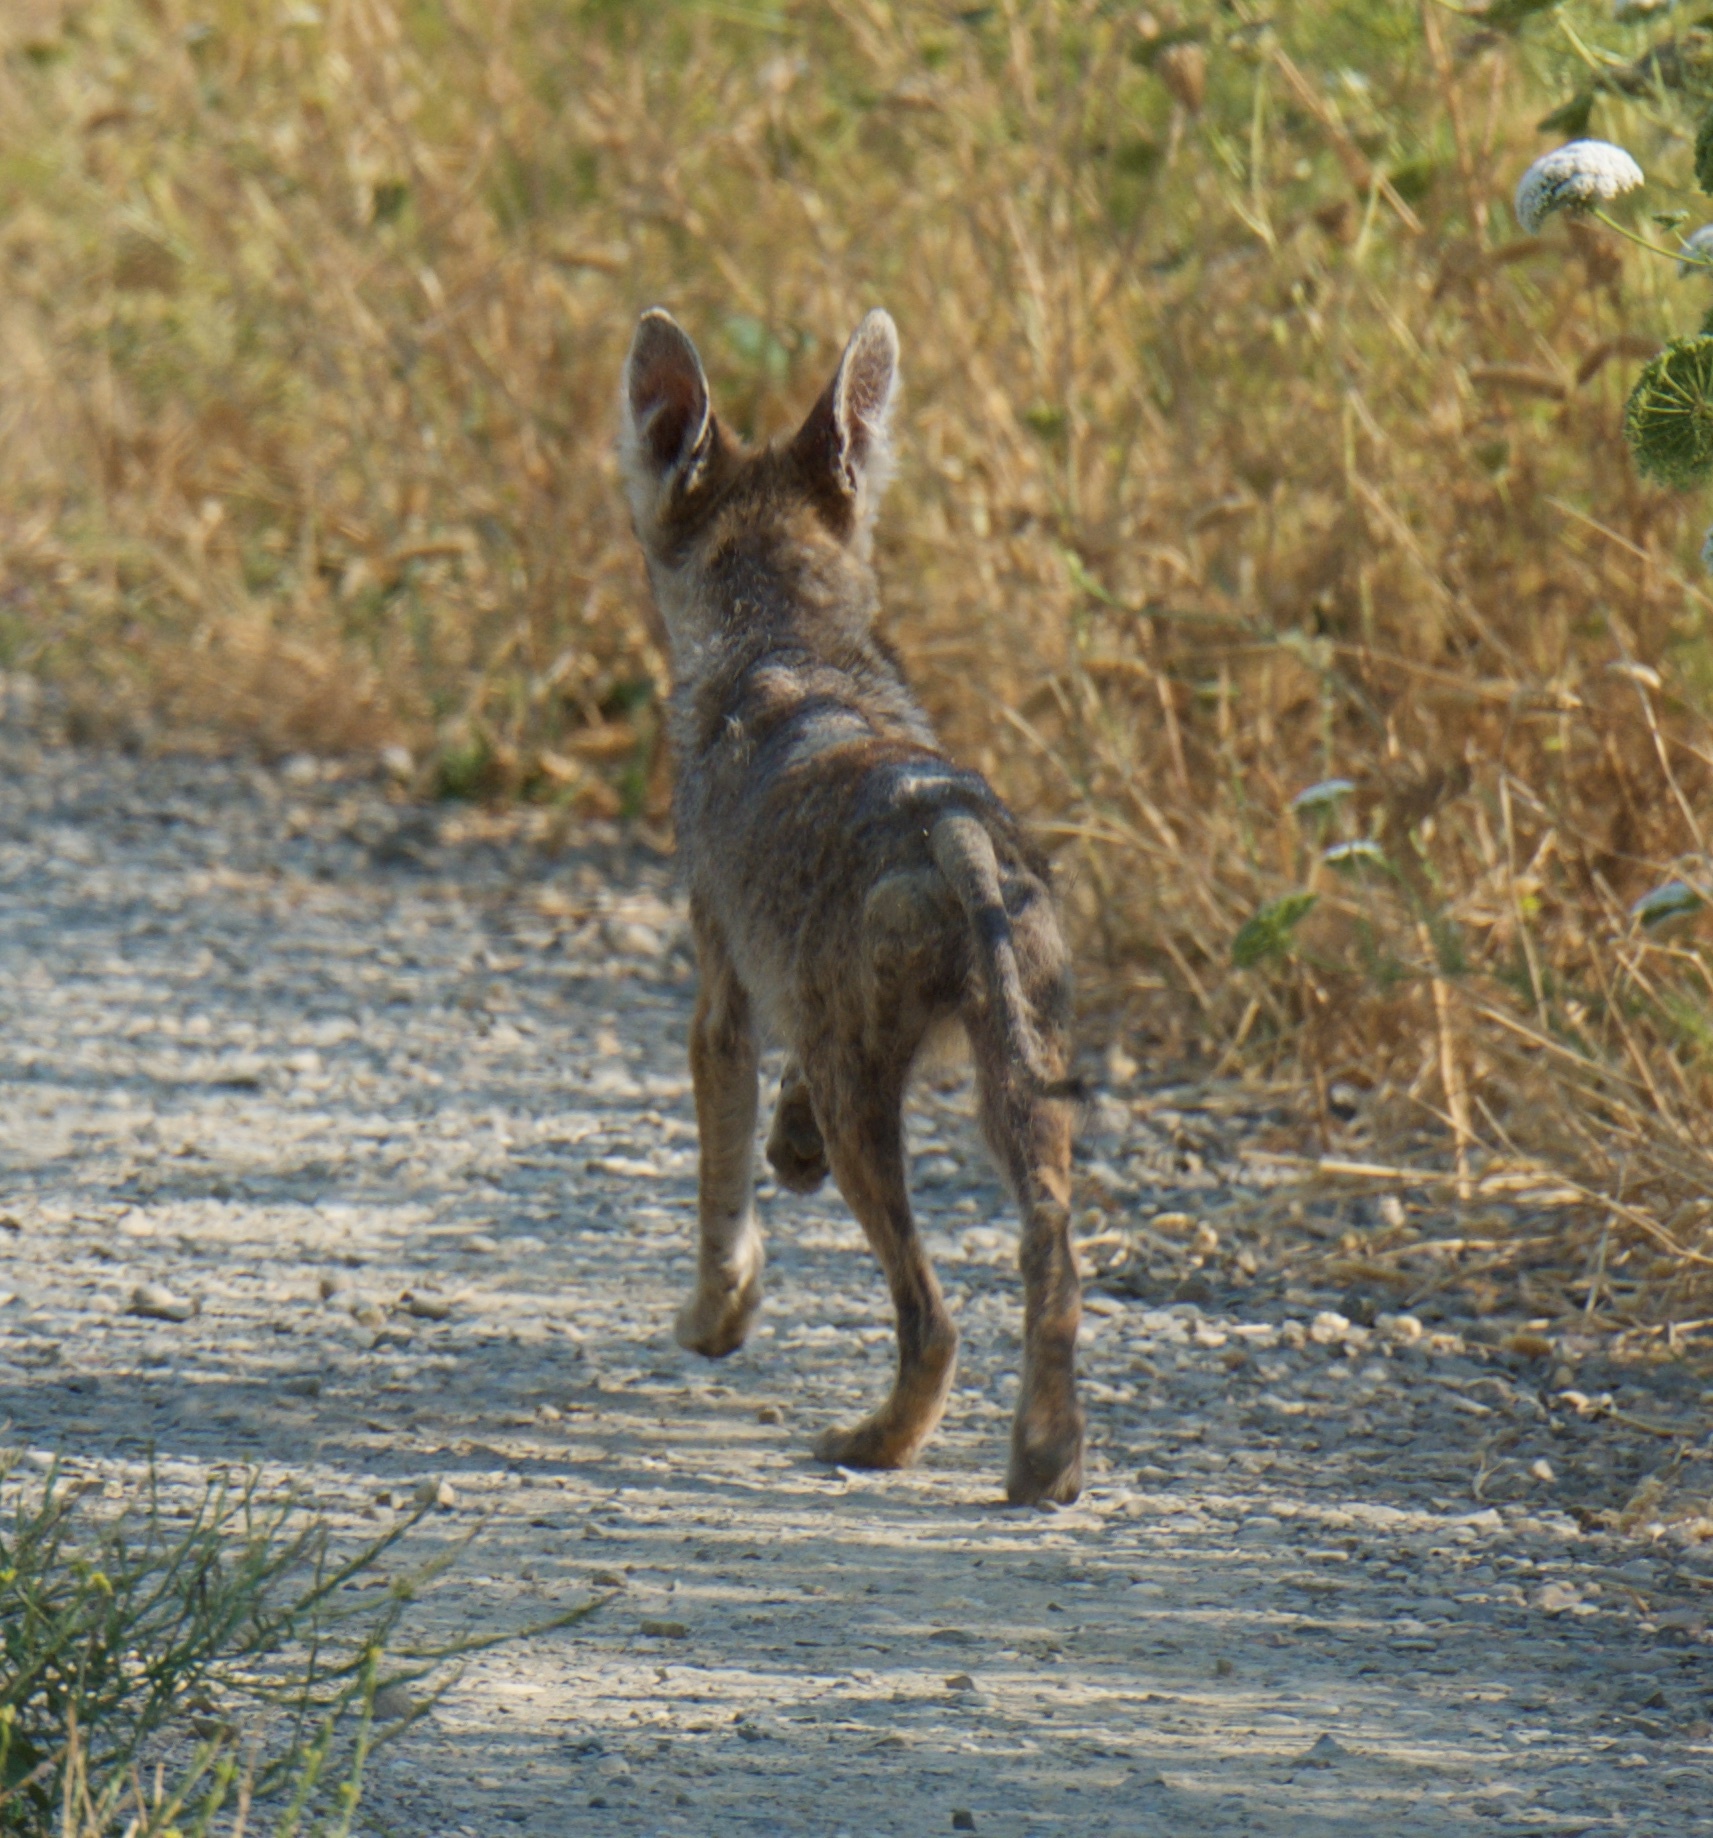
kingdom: Animalia
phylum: Chordata
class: Mammalia
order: Carnivora
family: Canidae
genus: Canis
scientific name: Canis latrans
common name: Coyote
